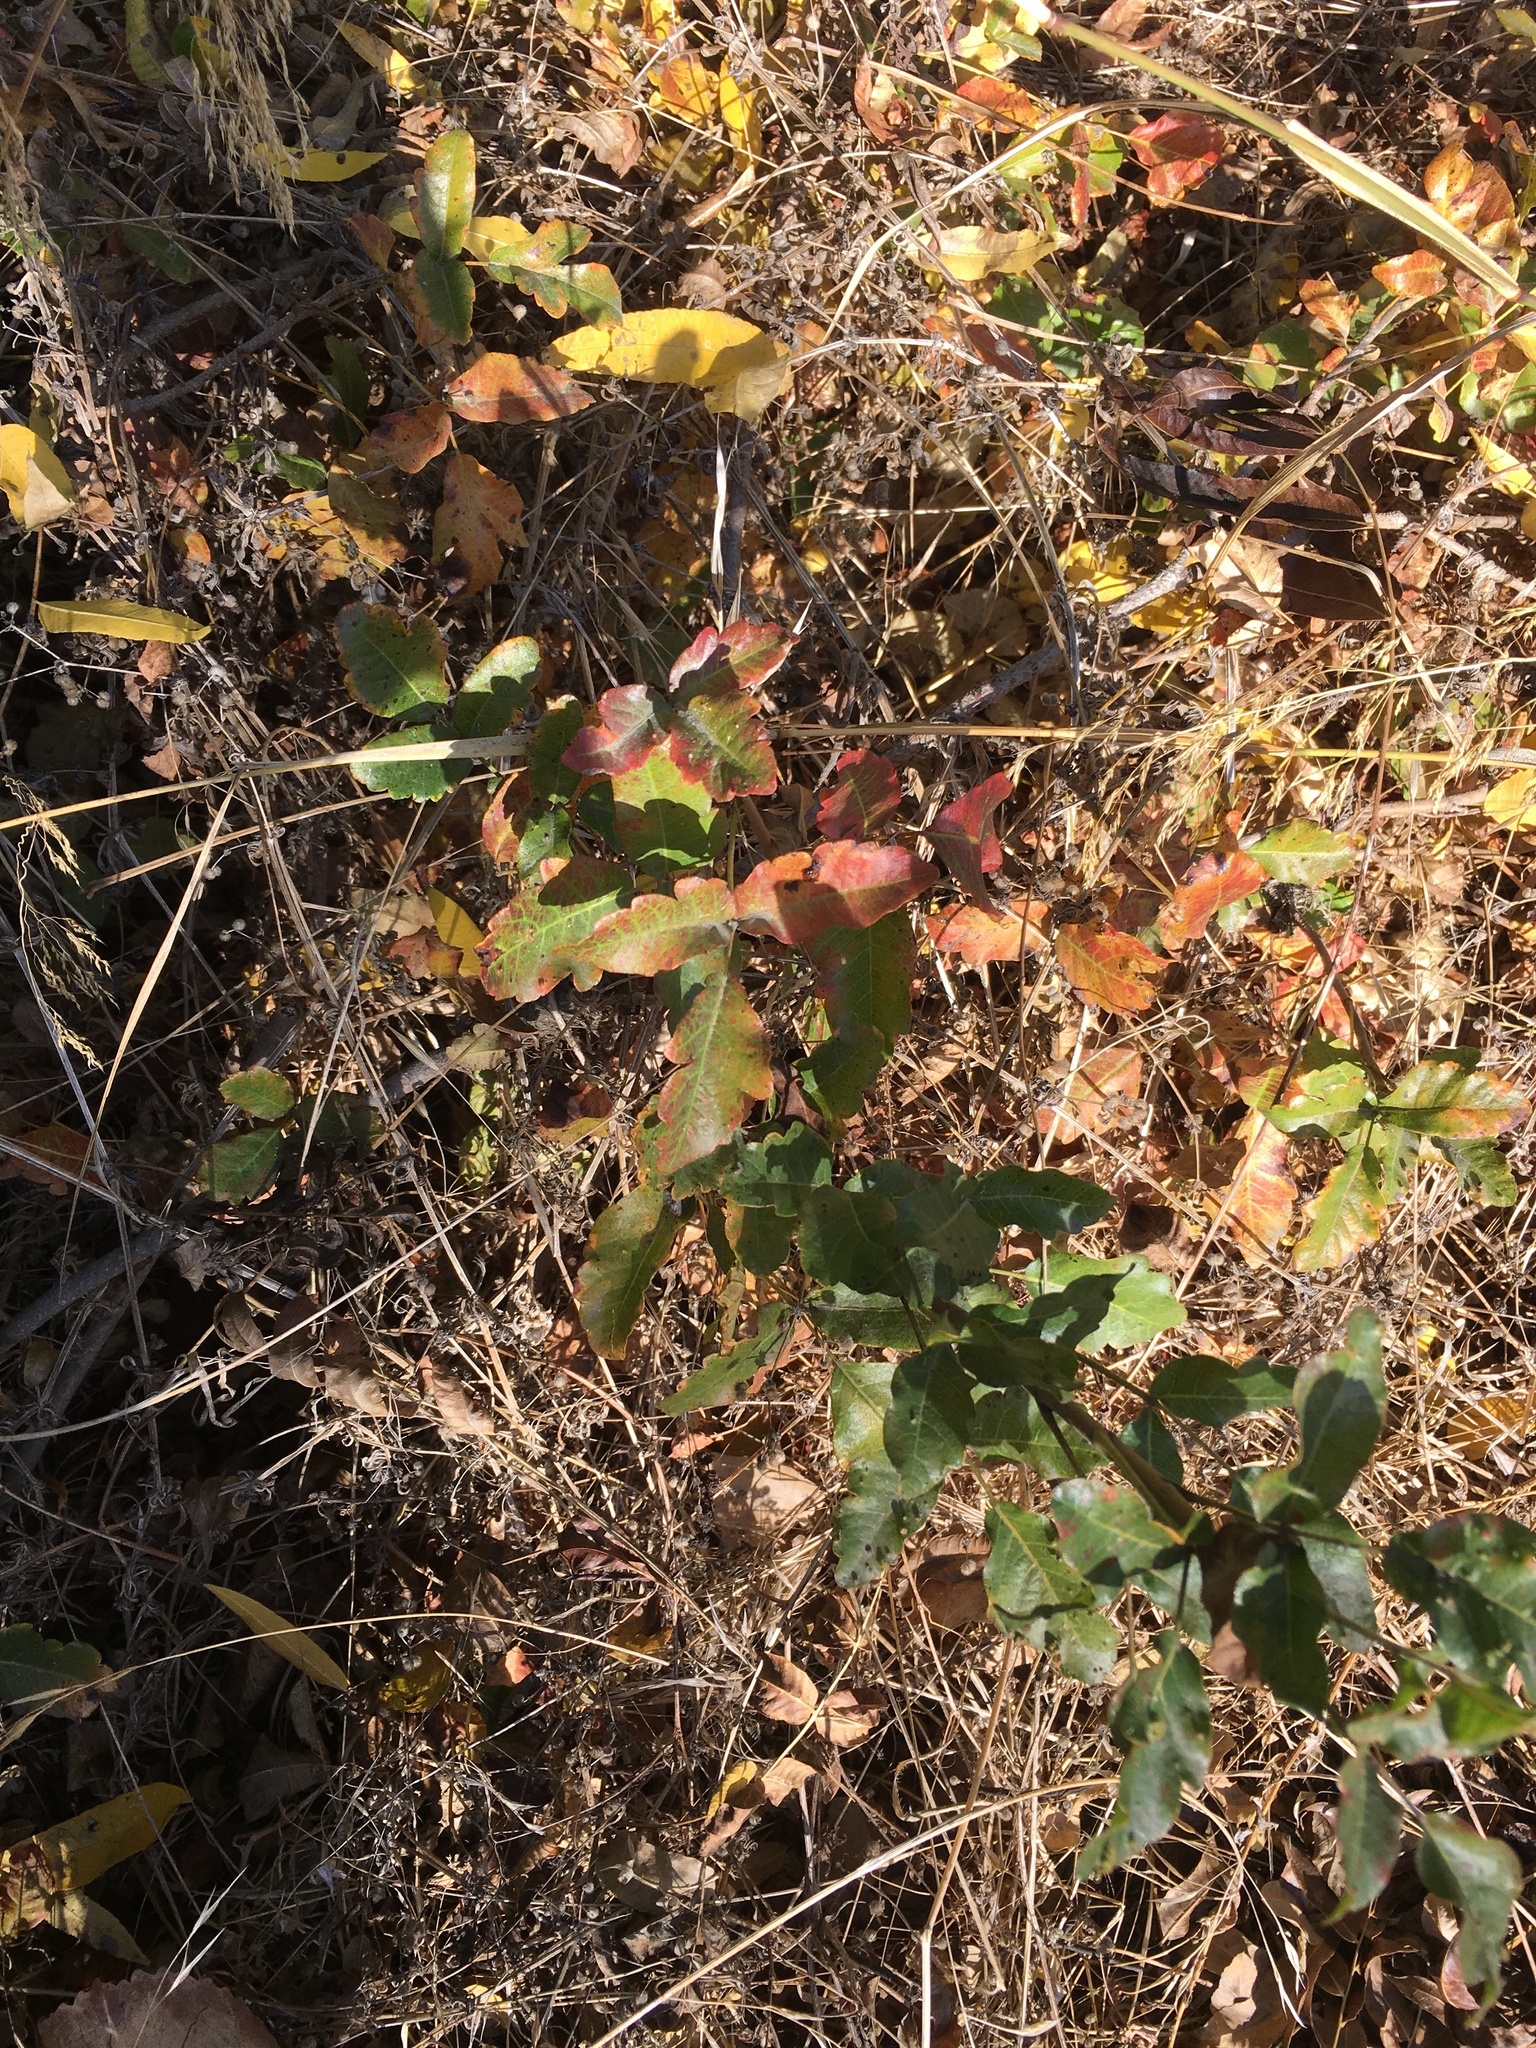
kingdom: Plantae
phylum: Tracheophyta
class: Magnoliopsida
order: Sapindales
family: Anacardiaceae
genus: Toxicodendron
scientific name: Toxicodendron diversilobum
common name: Pacific poison-oak
